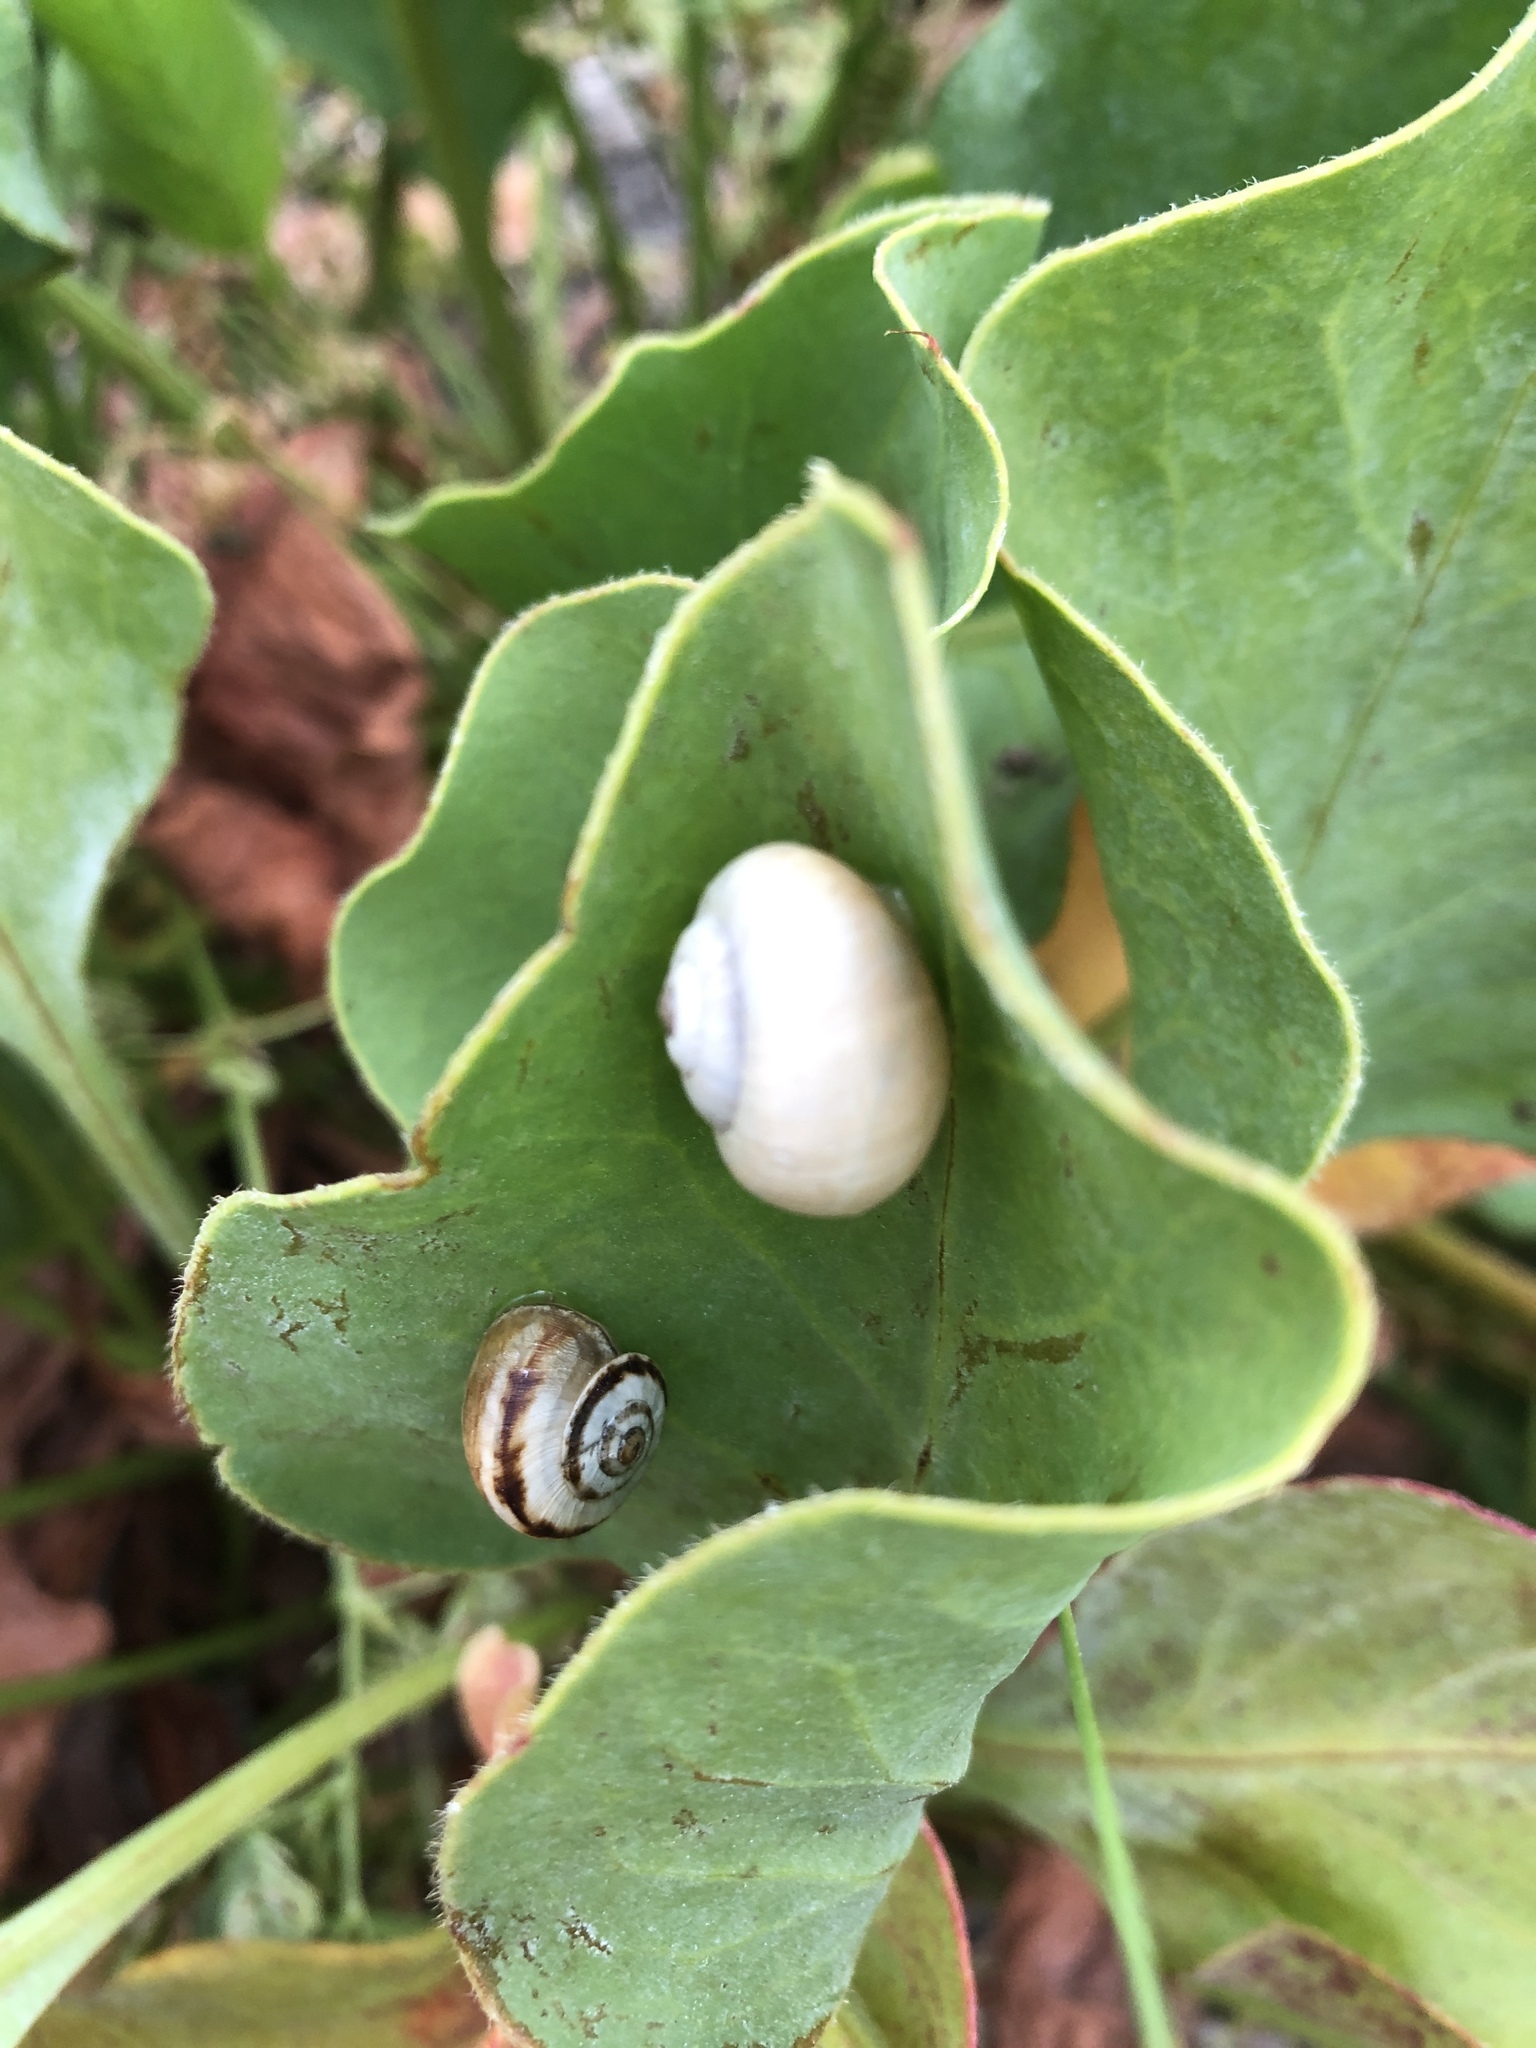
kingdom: Animalia
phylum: Mollusca
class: Gastropoda
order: Stylommatophora
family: Helicidae
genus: Theba
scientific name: Theba pisana
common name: White snail
